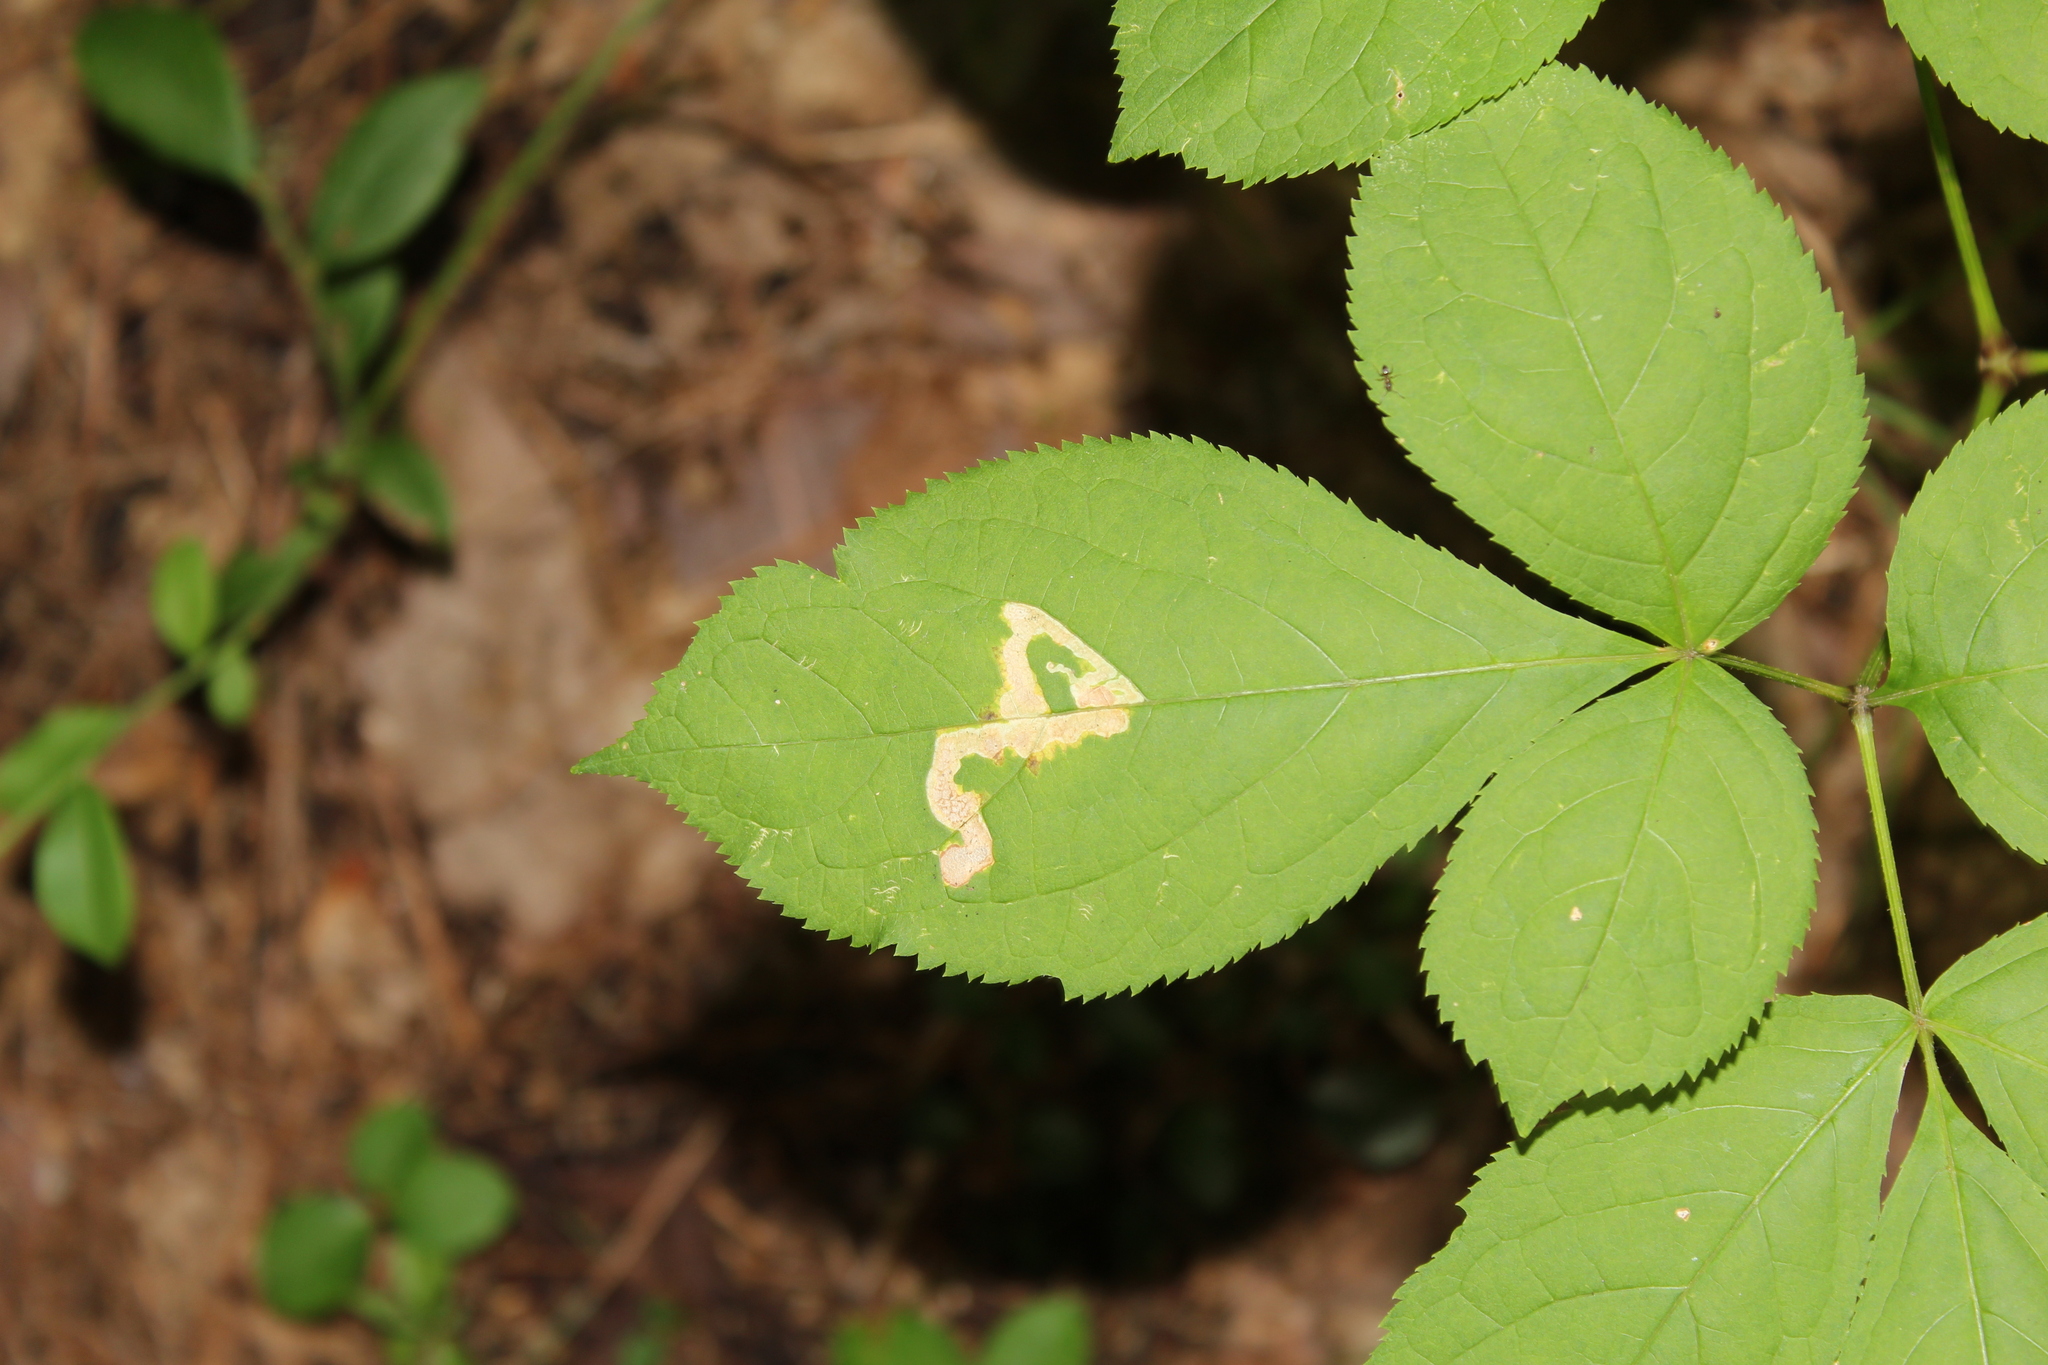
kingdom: Plantae
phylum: Tracheophyta
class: Magnoliopsida
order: Apiales
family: Araliaceae
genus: Aralia
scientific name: Aralia nudicaulis
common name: Wild sarsaparilla
